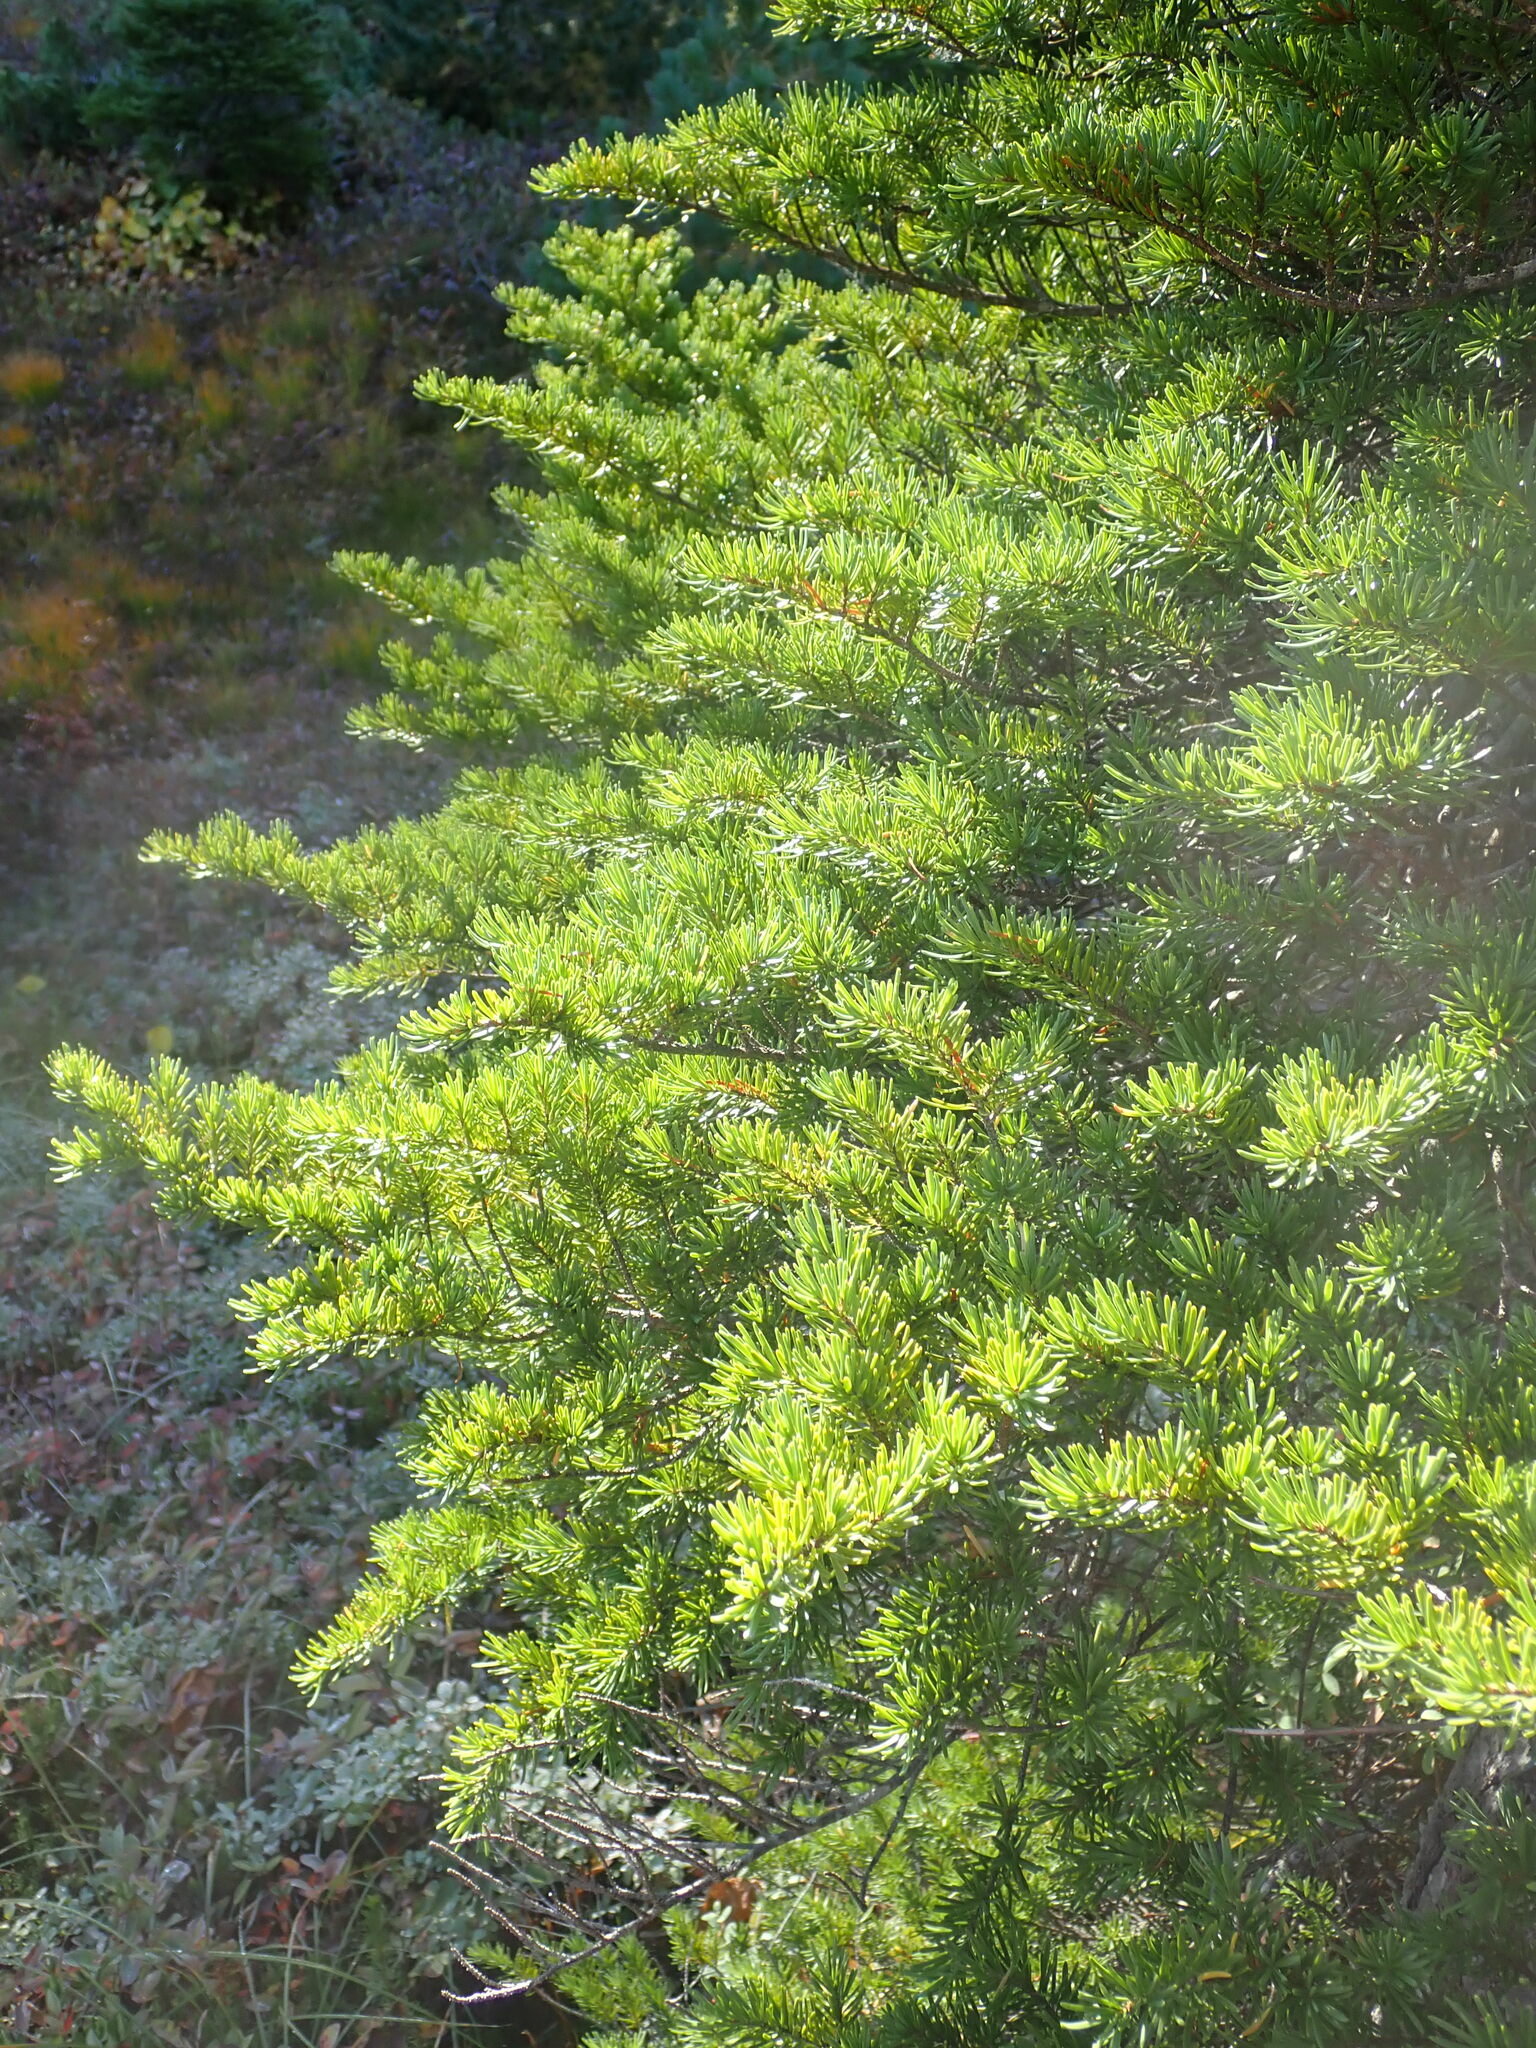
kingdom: Plantae
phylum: Tracheophyta
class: Pinopsida
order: Pinales
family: Pinaceae
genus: Tsuga
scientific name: Tsuga mertensiana
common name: Mountain hemlock
